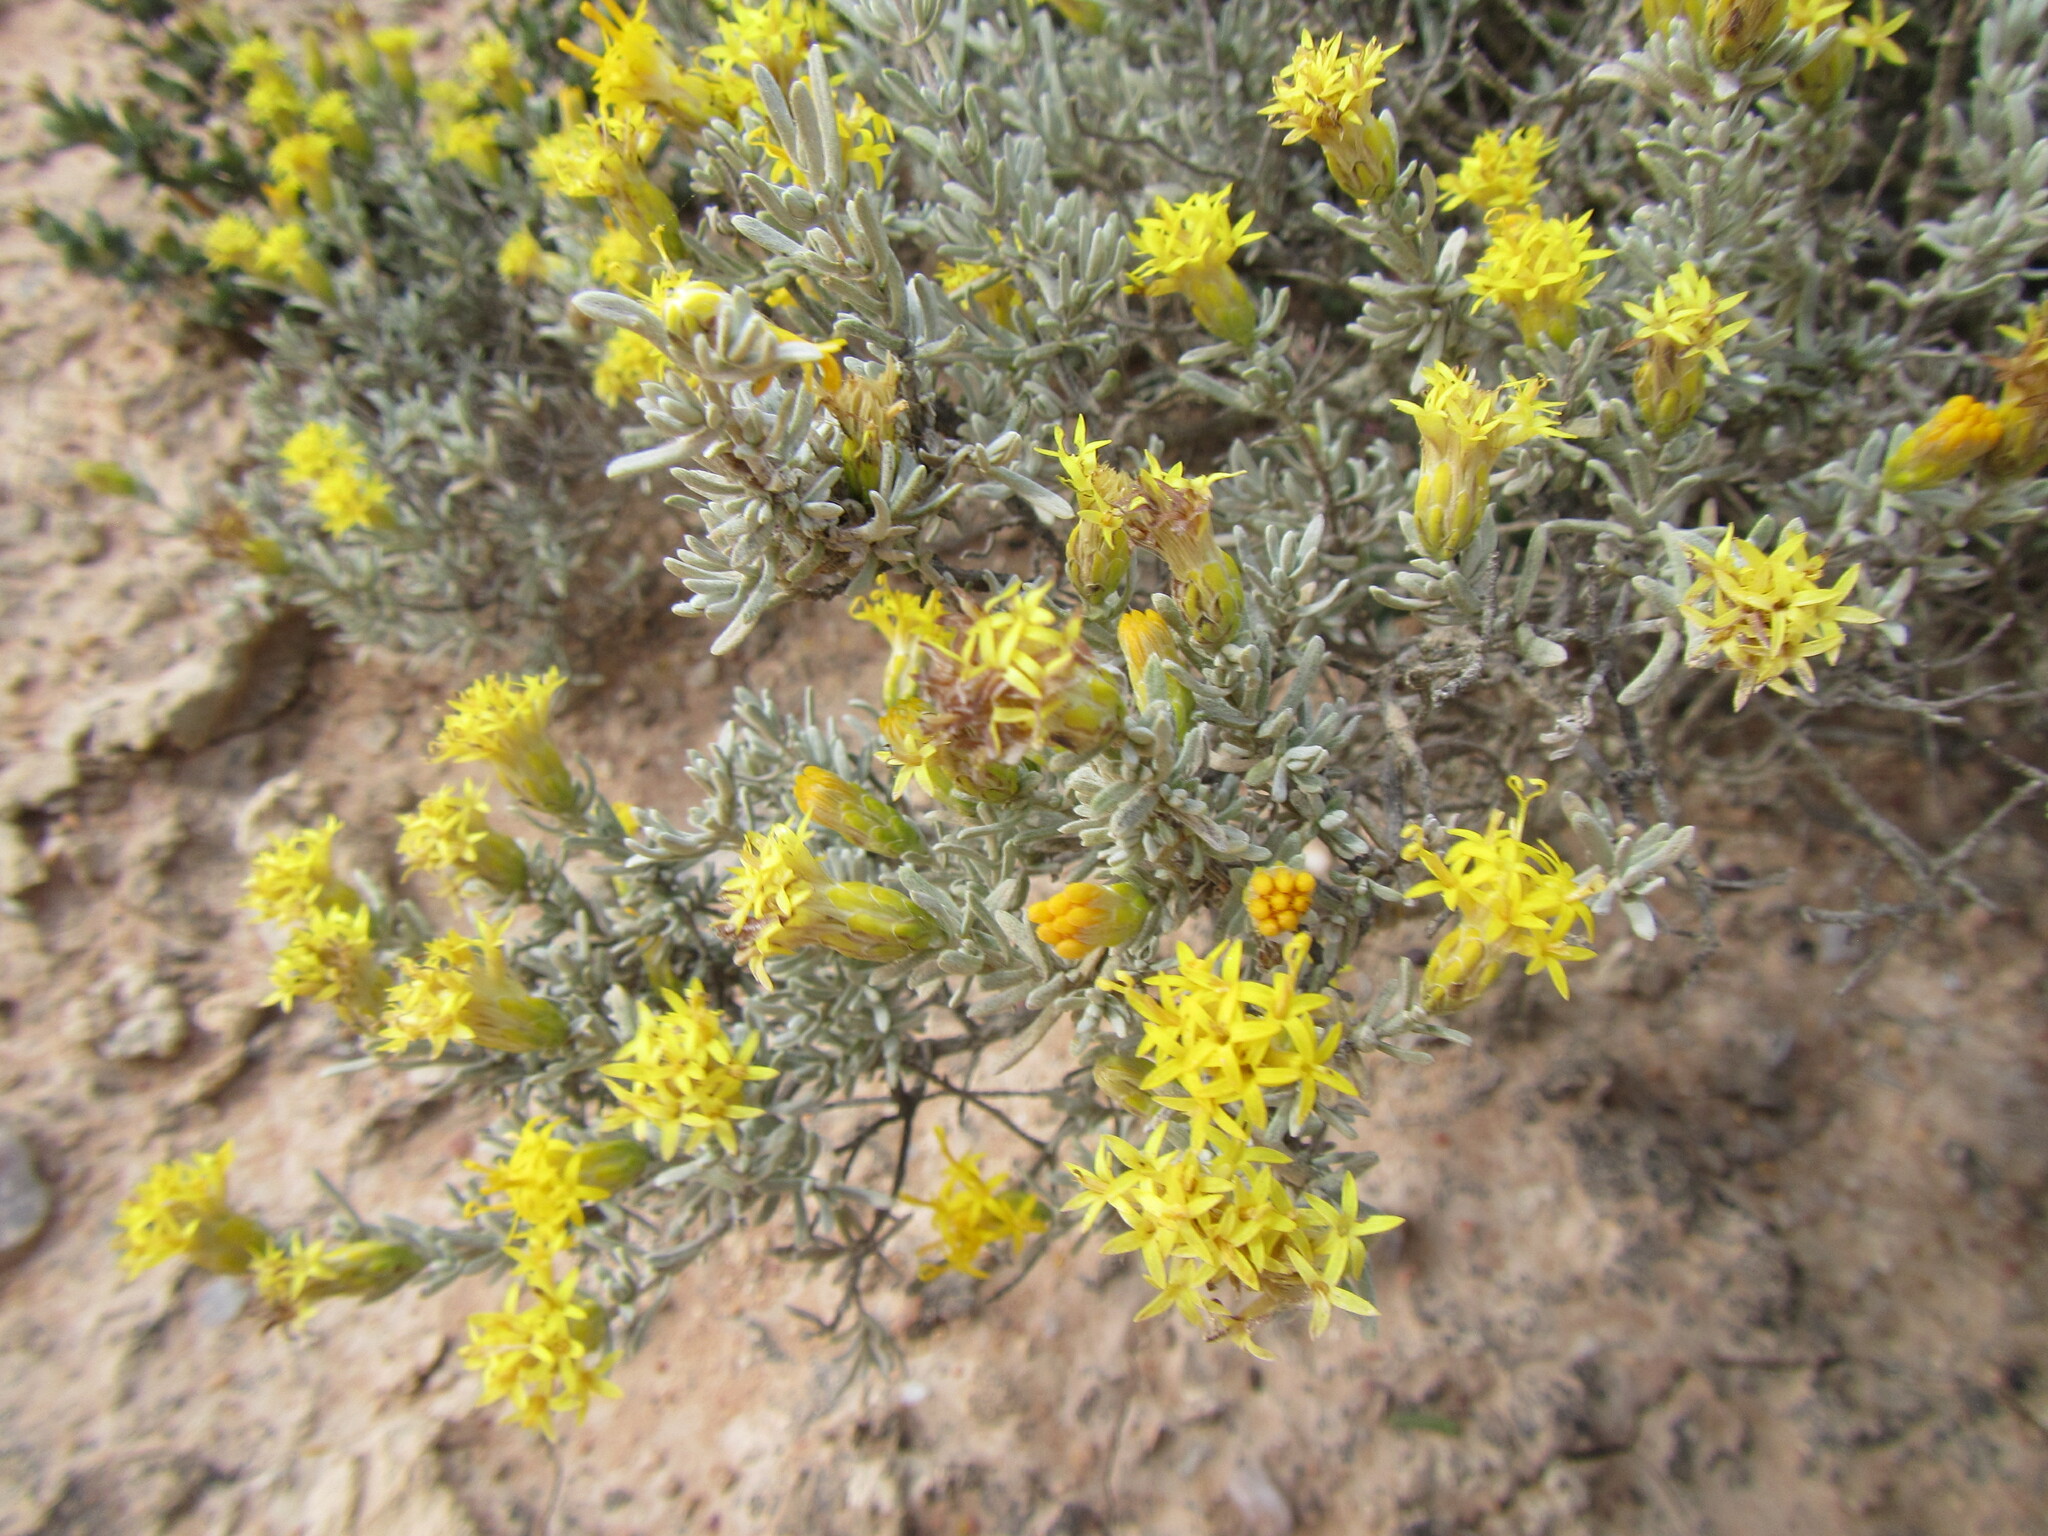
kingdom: Plantae
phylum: Tracheophyta
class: Magnoliopsida
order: Asterales
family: Asteraceae
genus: Pteronia
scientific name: Pteronia incana
